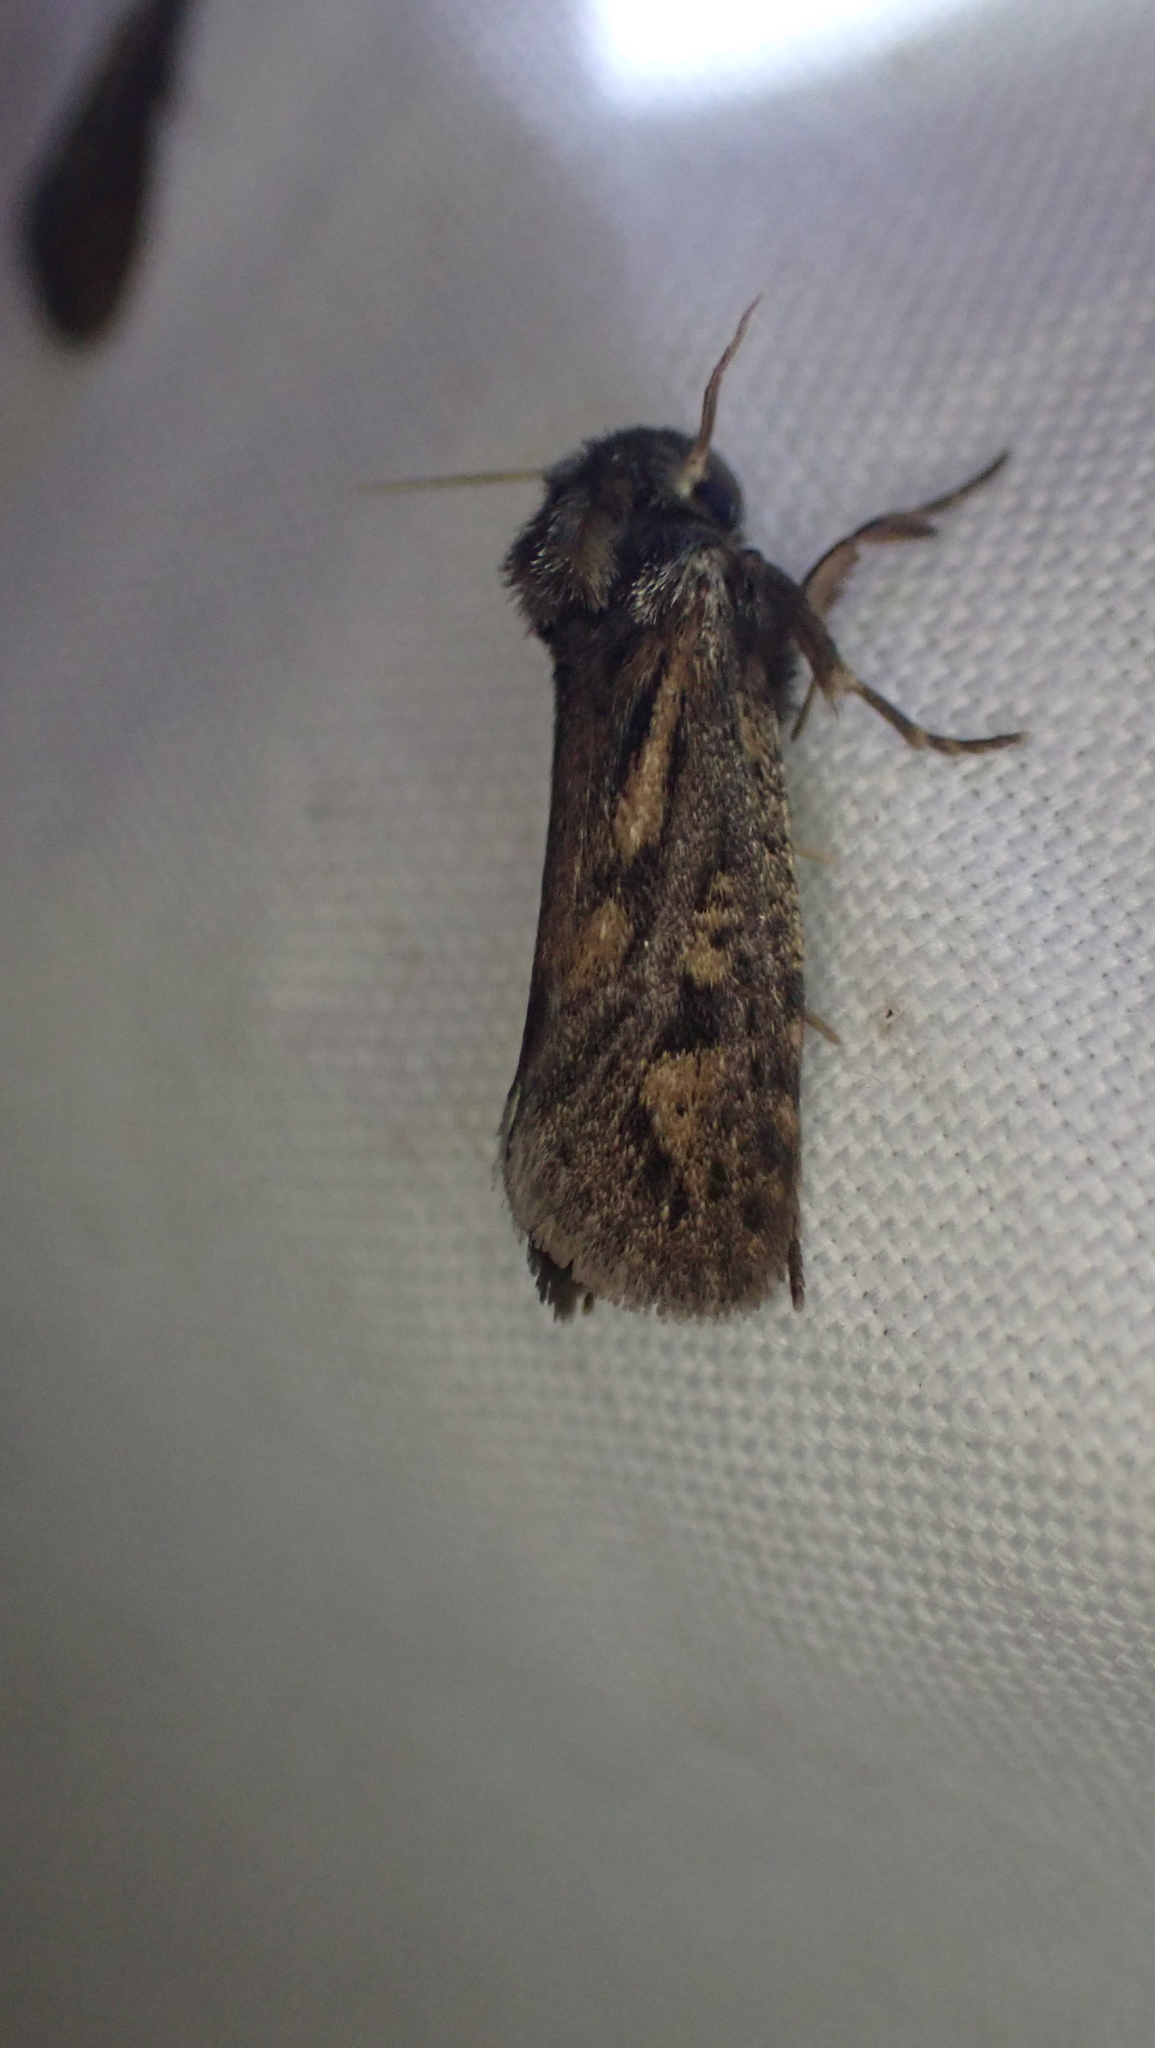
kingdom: Animalia
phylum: Arthropoda
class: Insecta
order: Lepidoptera
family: Tineidae
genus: Acrolophus
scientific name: Acrolophus popeanella
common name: Clemens' grass tubeworm moth
